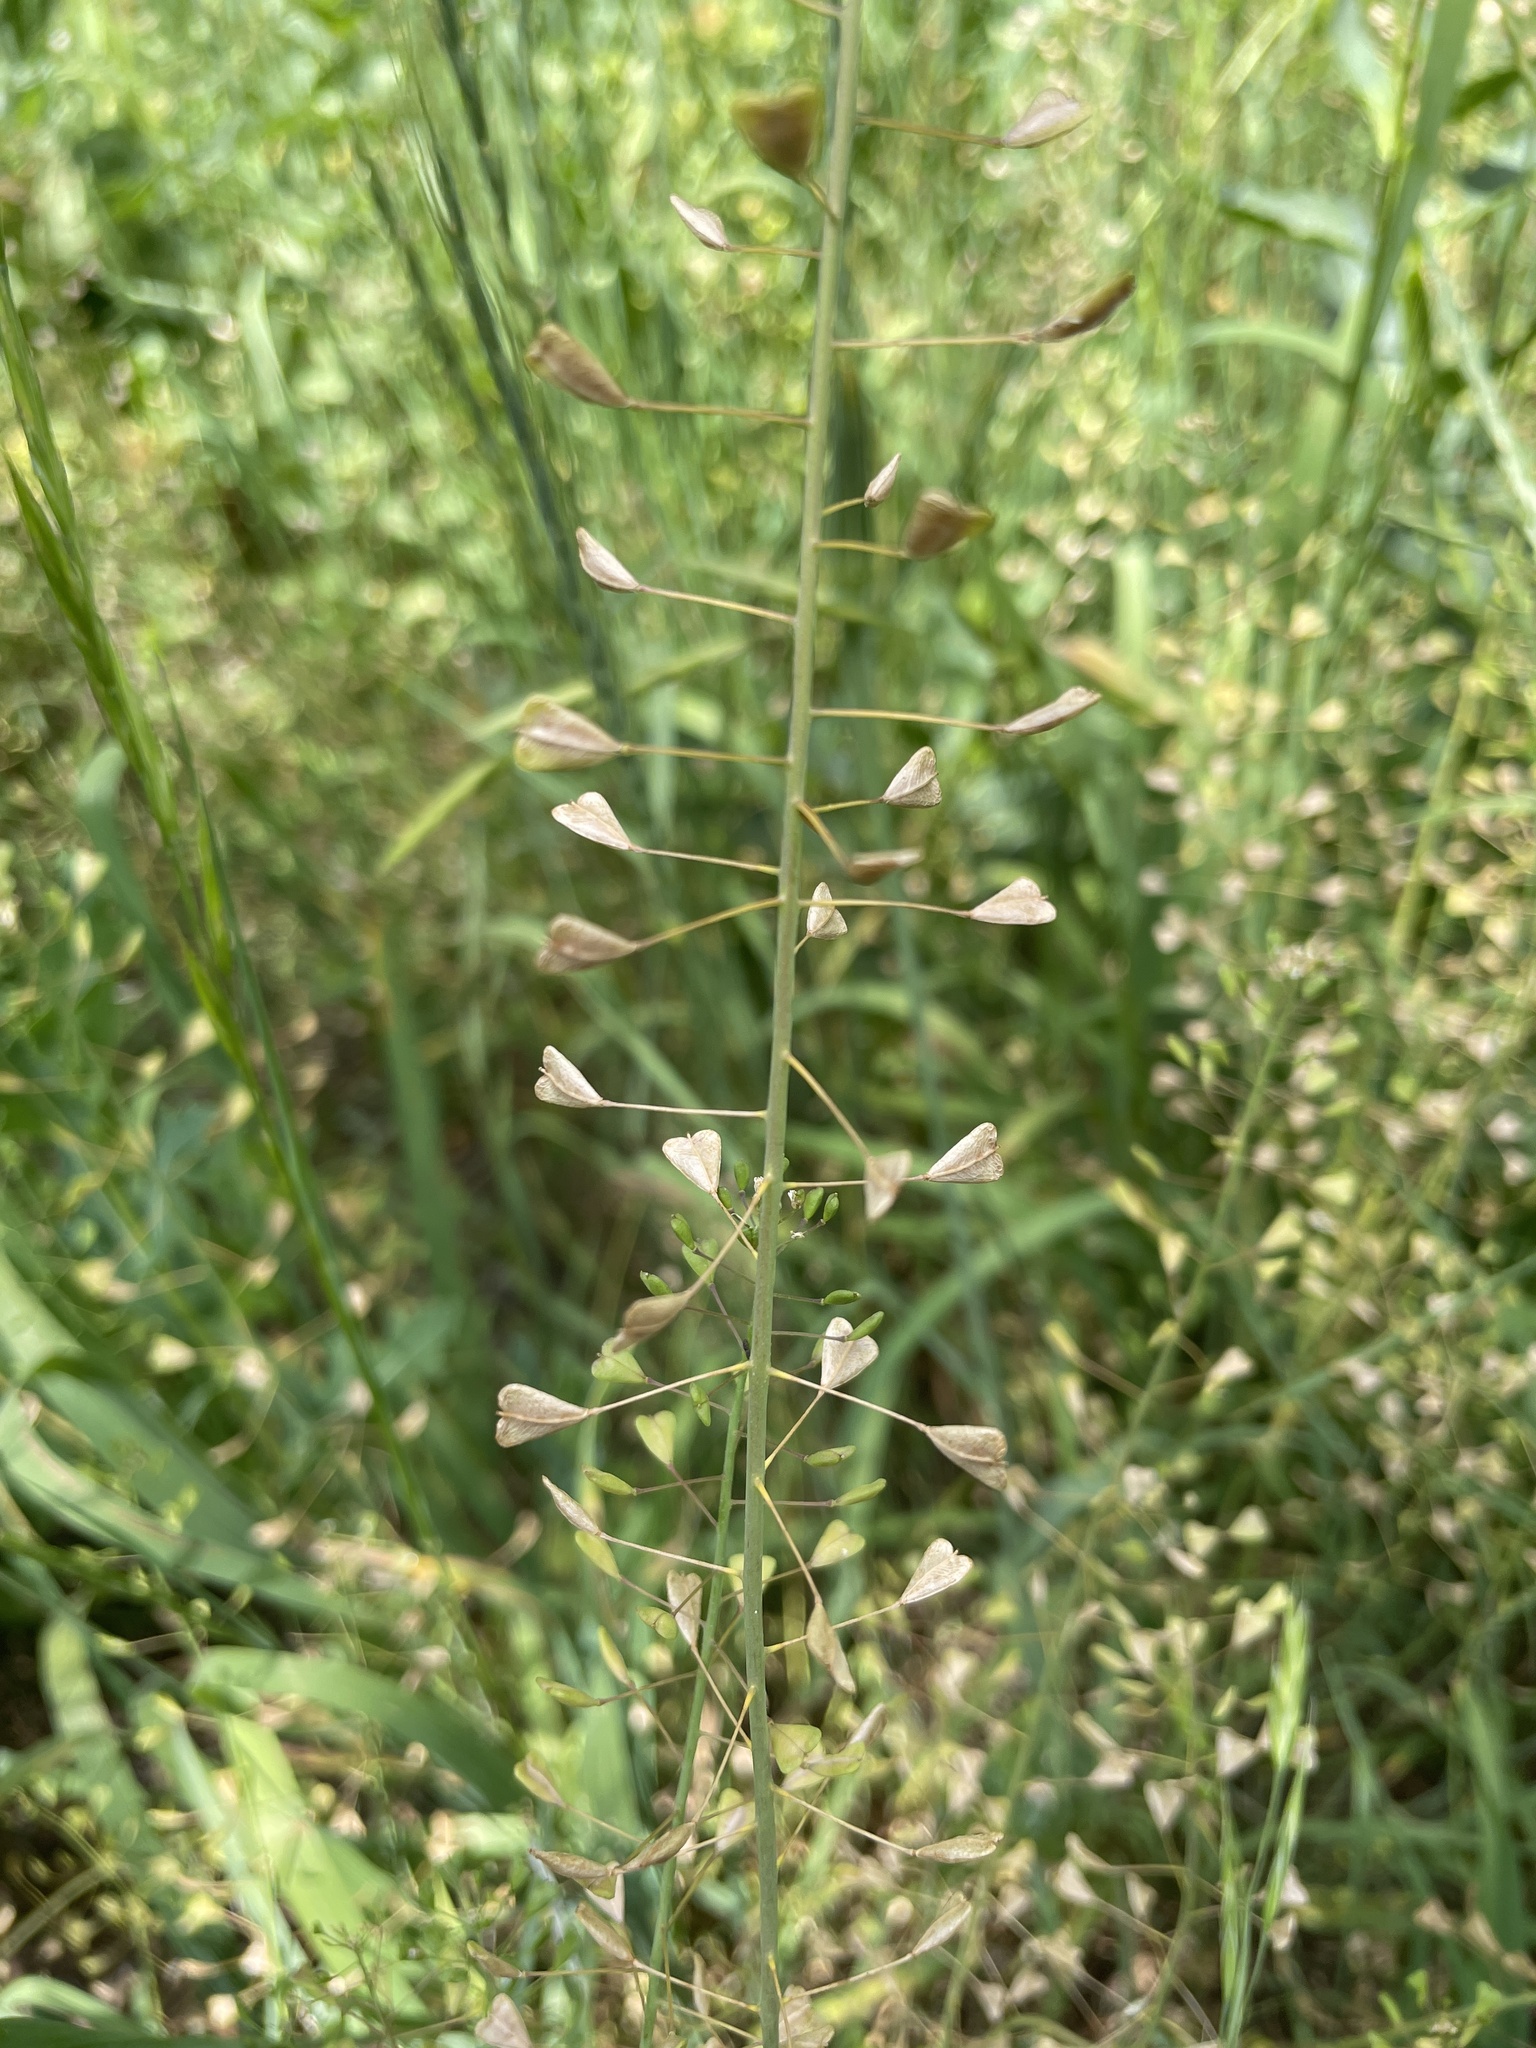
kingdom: Plantae
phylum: Tracheophyta
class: Magnoliopsida
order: Brassicales
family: Brassicaceae
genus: Capsella
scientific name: Capsella bursa-pastoris
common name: Shepherd's purse
